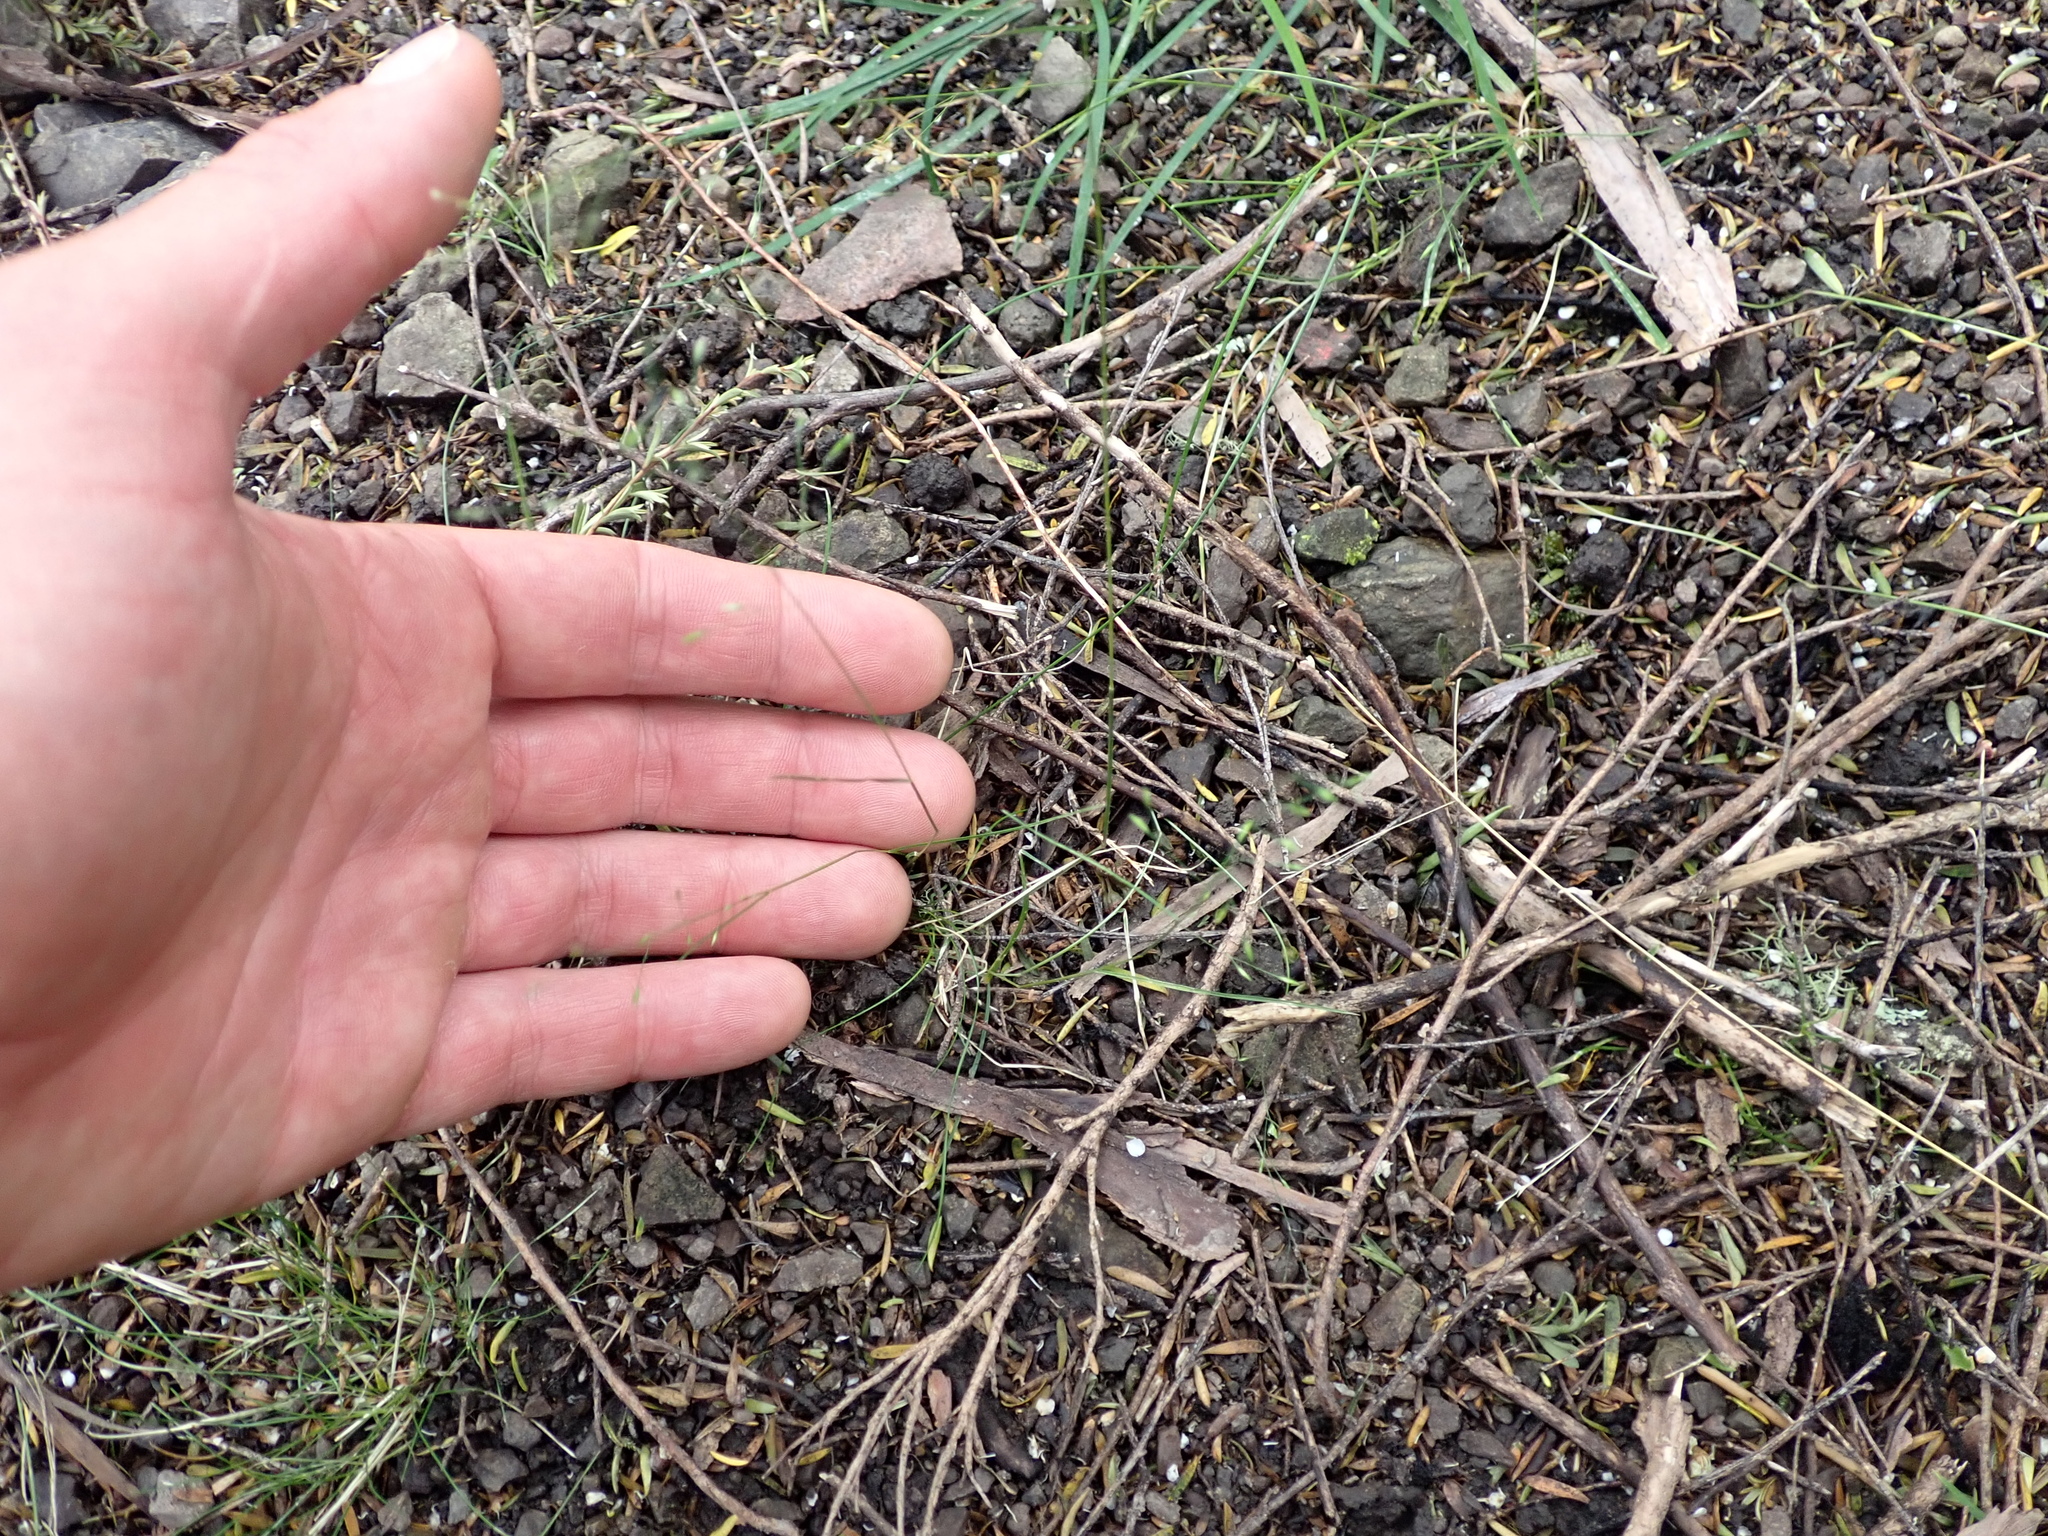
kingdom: Plantae
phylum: Tracheophyta
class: Liliopsida
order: Poales
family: Poaceae
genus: Poa
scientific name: Poa imbecilla
